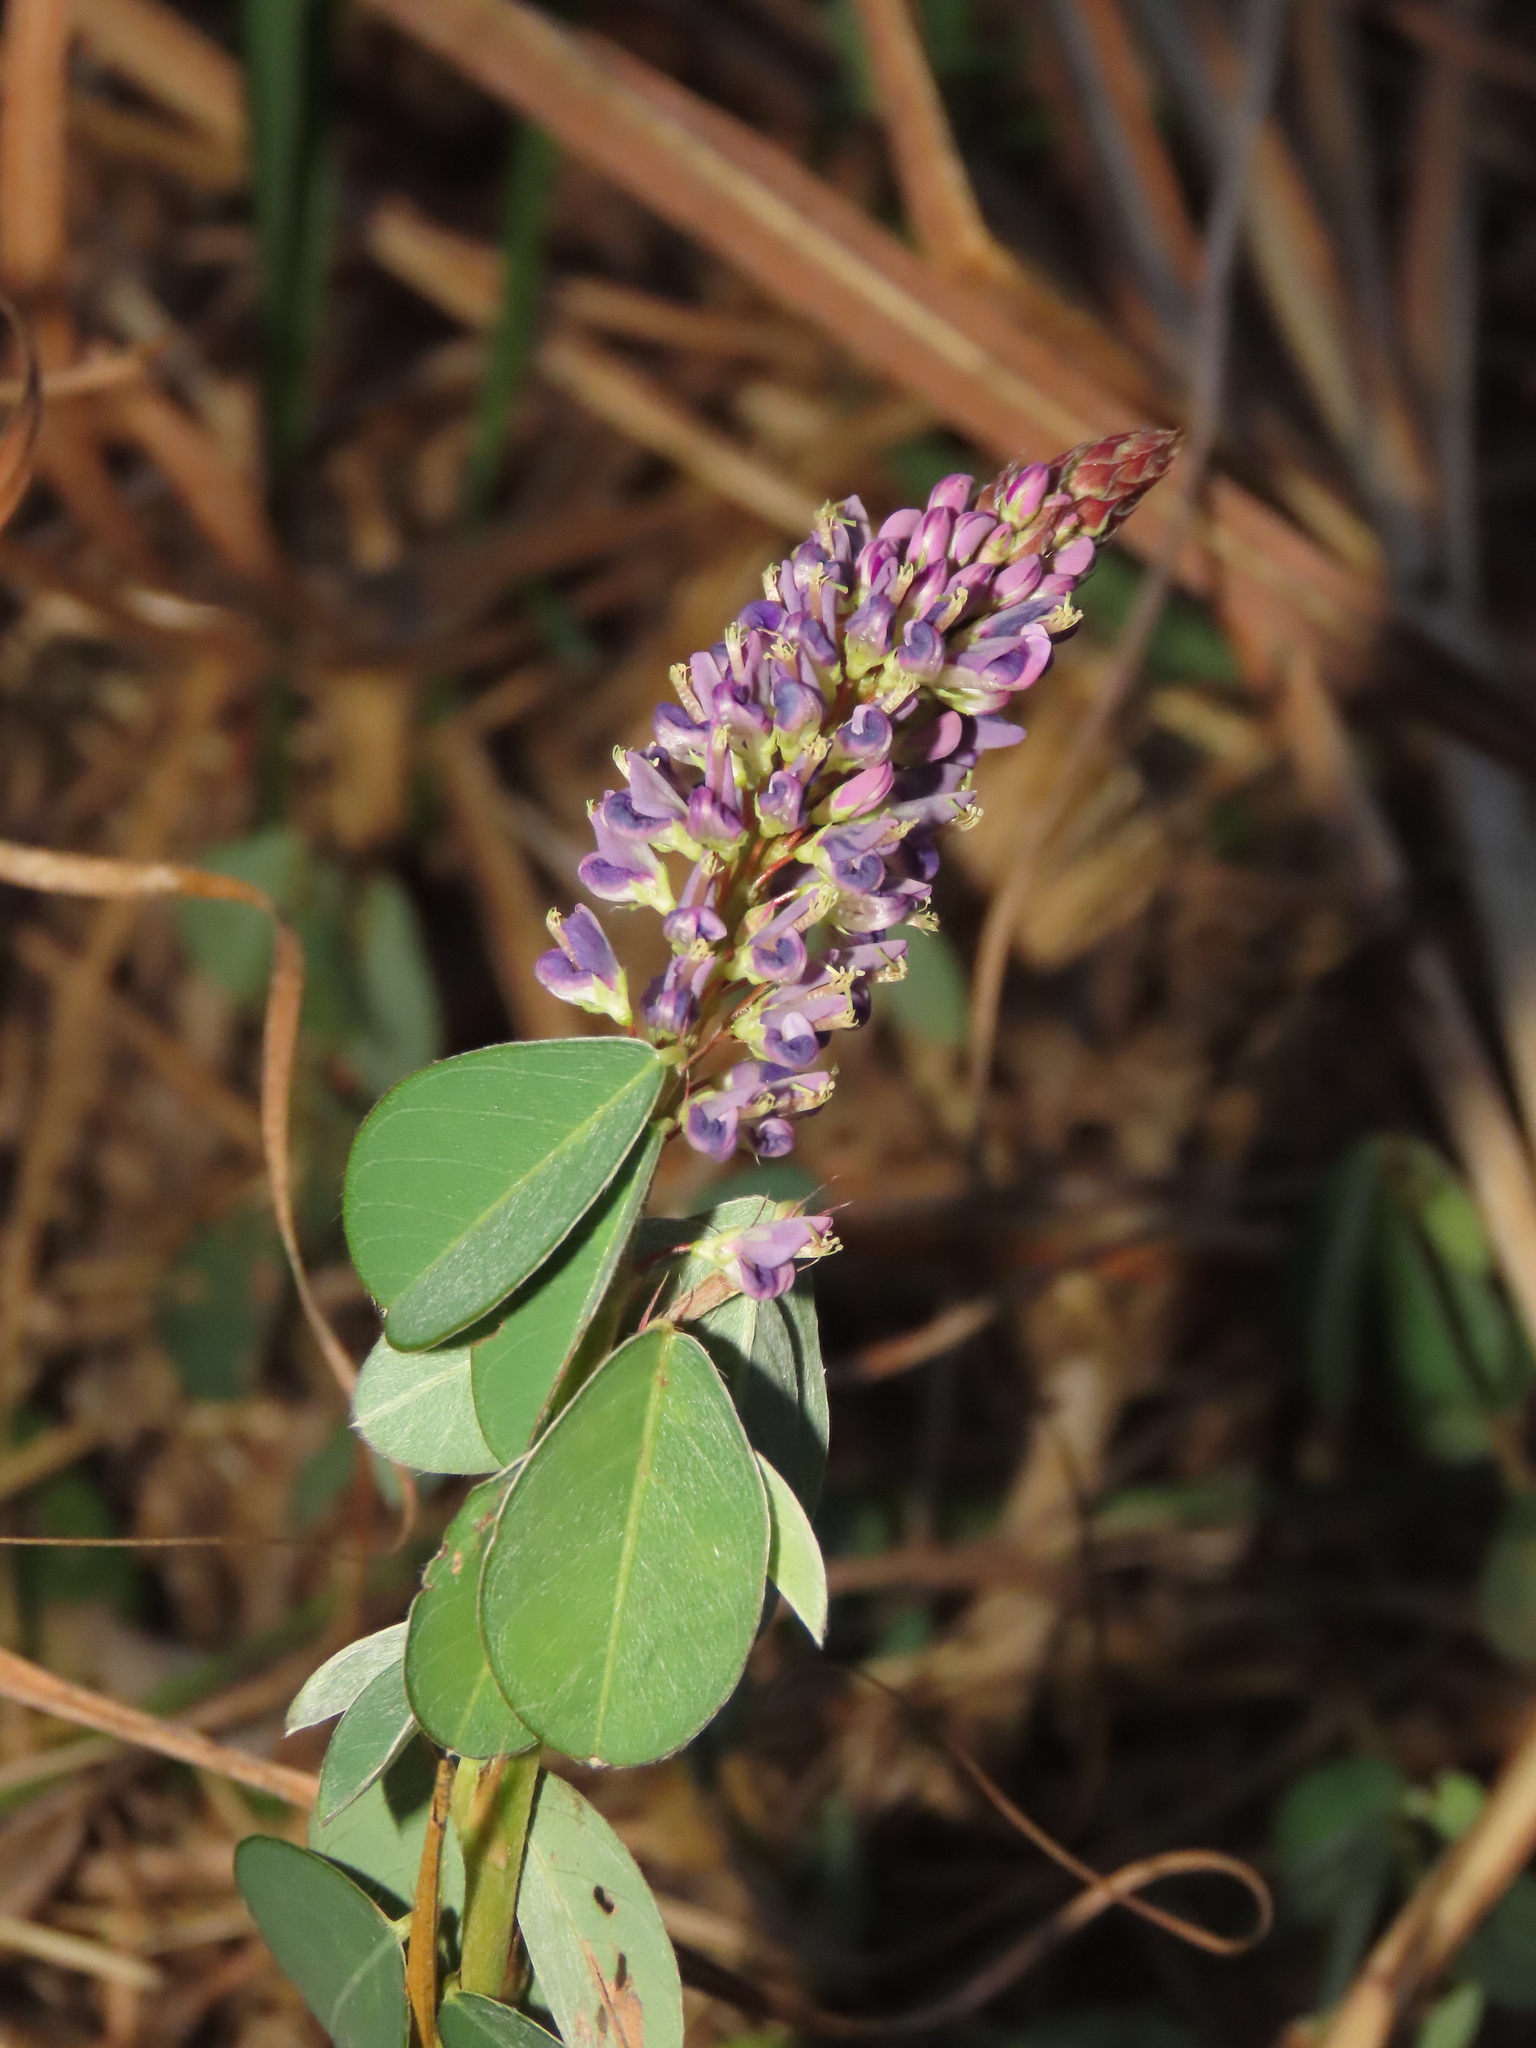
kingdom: Plantae
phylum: Tracheophyta
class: Magnoliopsida
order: Fabales
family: Fabaceae
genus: Grona
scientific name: Grona heterocarpos
